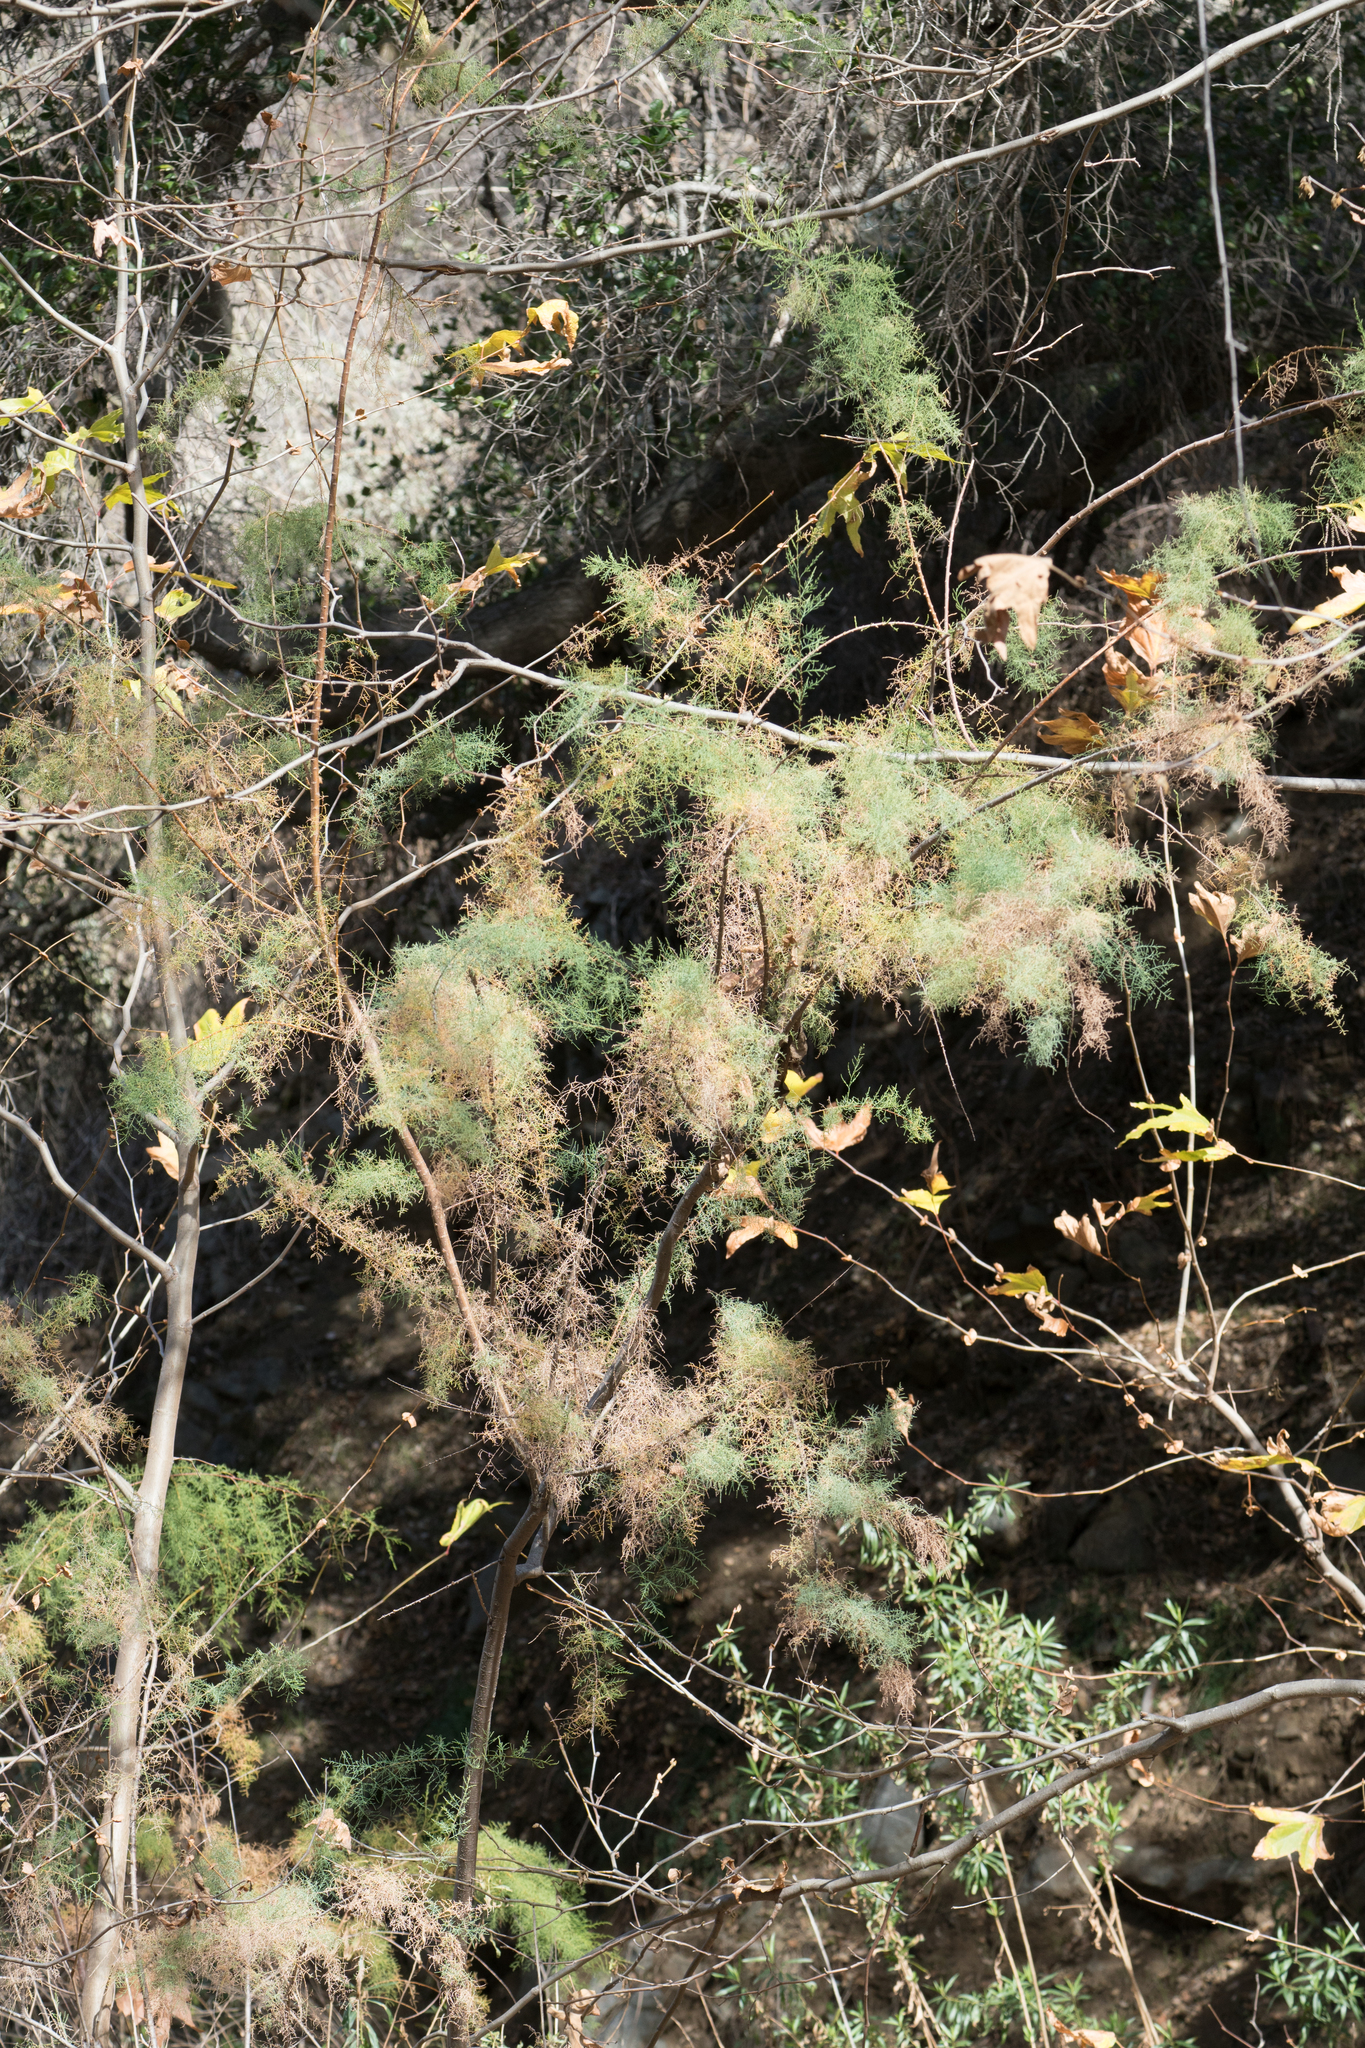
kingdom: Plantae
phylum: Tracheophyta
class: Magnoliopsida
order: Caryophyllales
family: Tamaricaceae
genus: Tamarix
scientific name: Tamarix
